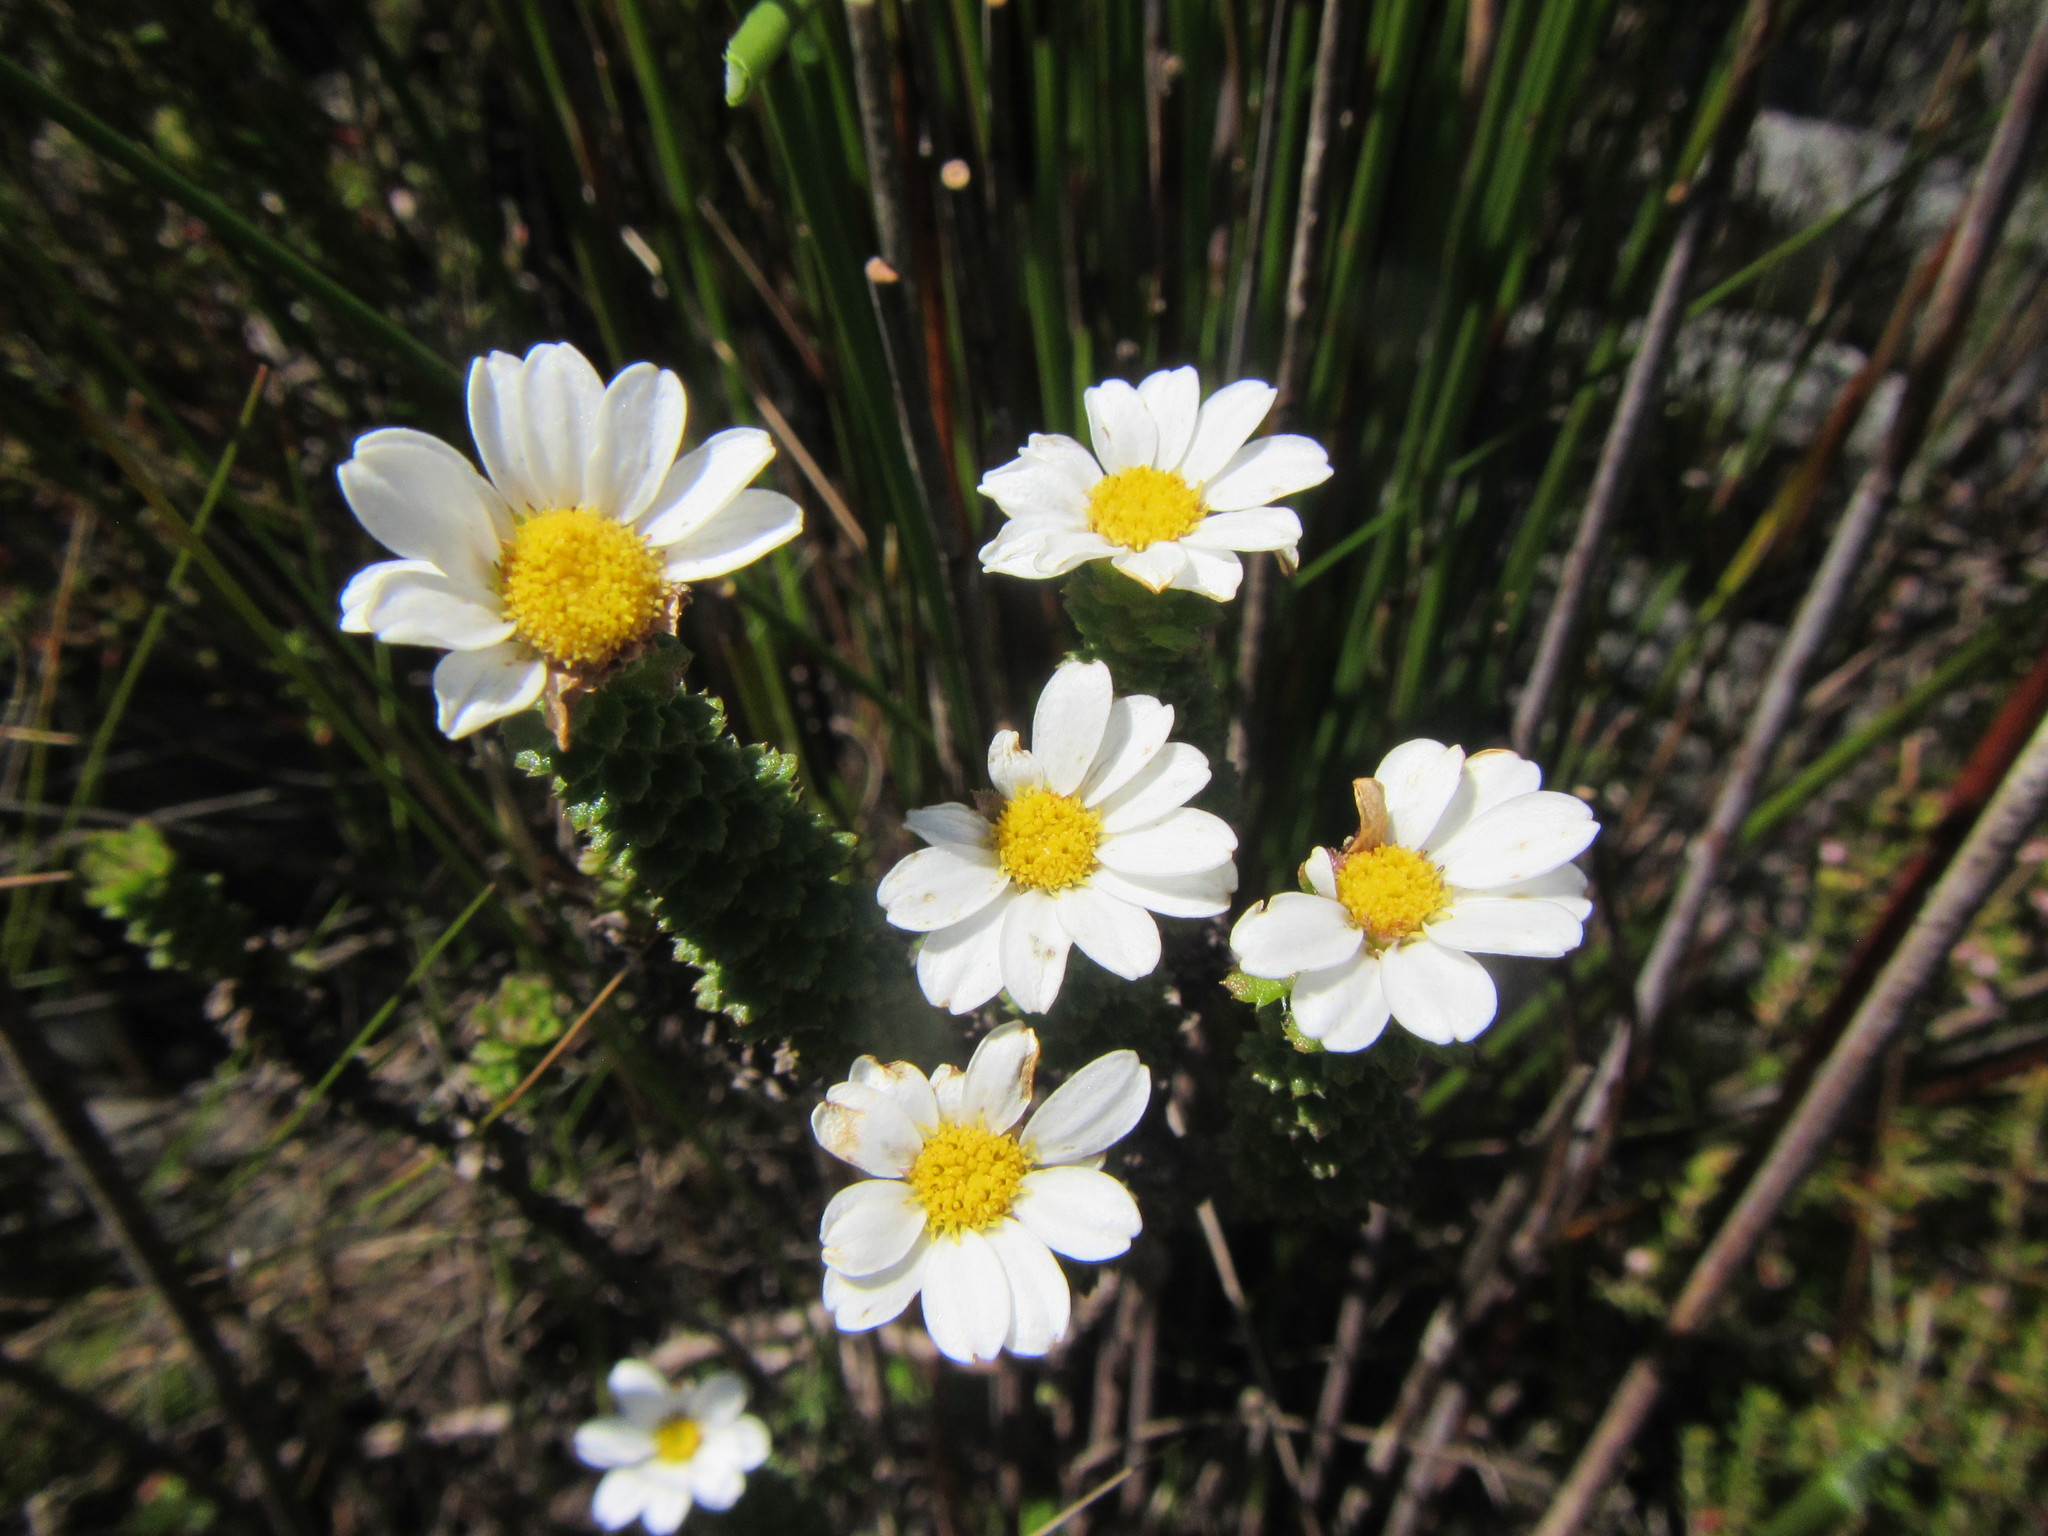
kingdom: Plantae
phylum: Tracheophyta
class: Magnoliopsida
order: Asterales
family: Asteraceae
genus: Osmitopsis
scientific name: Osmitopsis parvifolia
